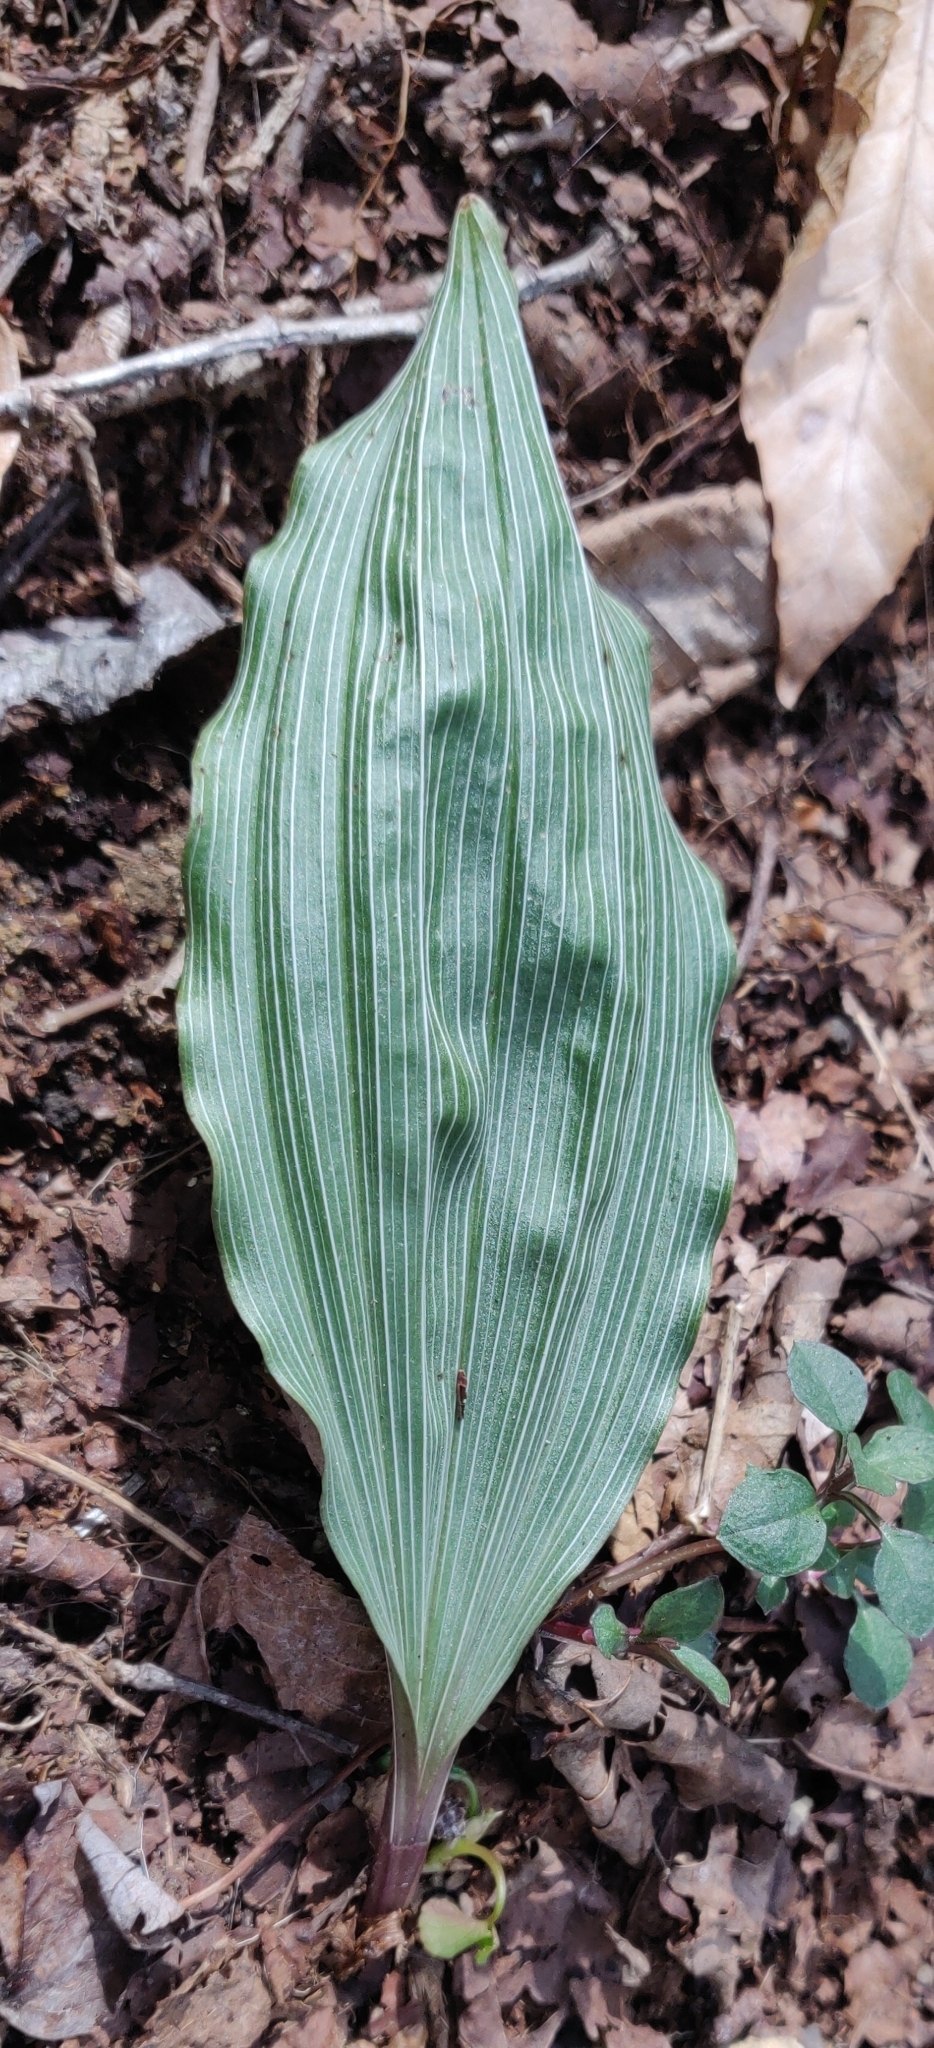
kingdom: Plantae
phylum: Tracheophyta
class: Liliopsida
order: Asparagales
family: Orchidaceae
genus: Aplectrum
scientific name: Aplectrum hyemale
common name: Adam-and-eve
